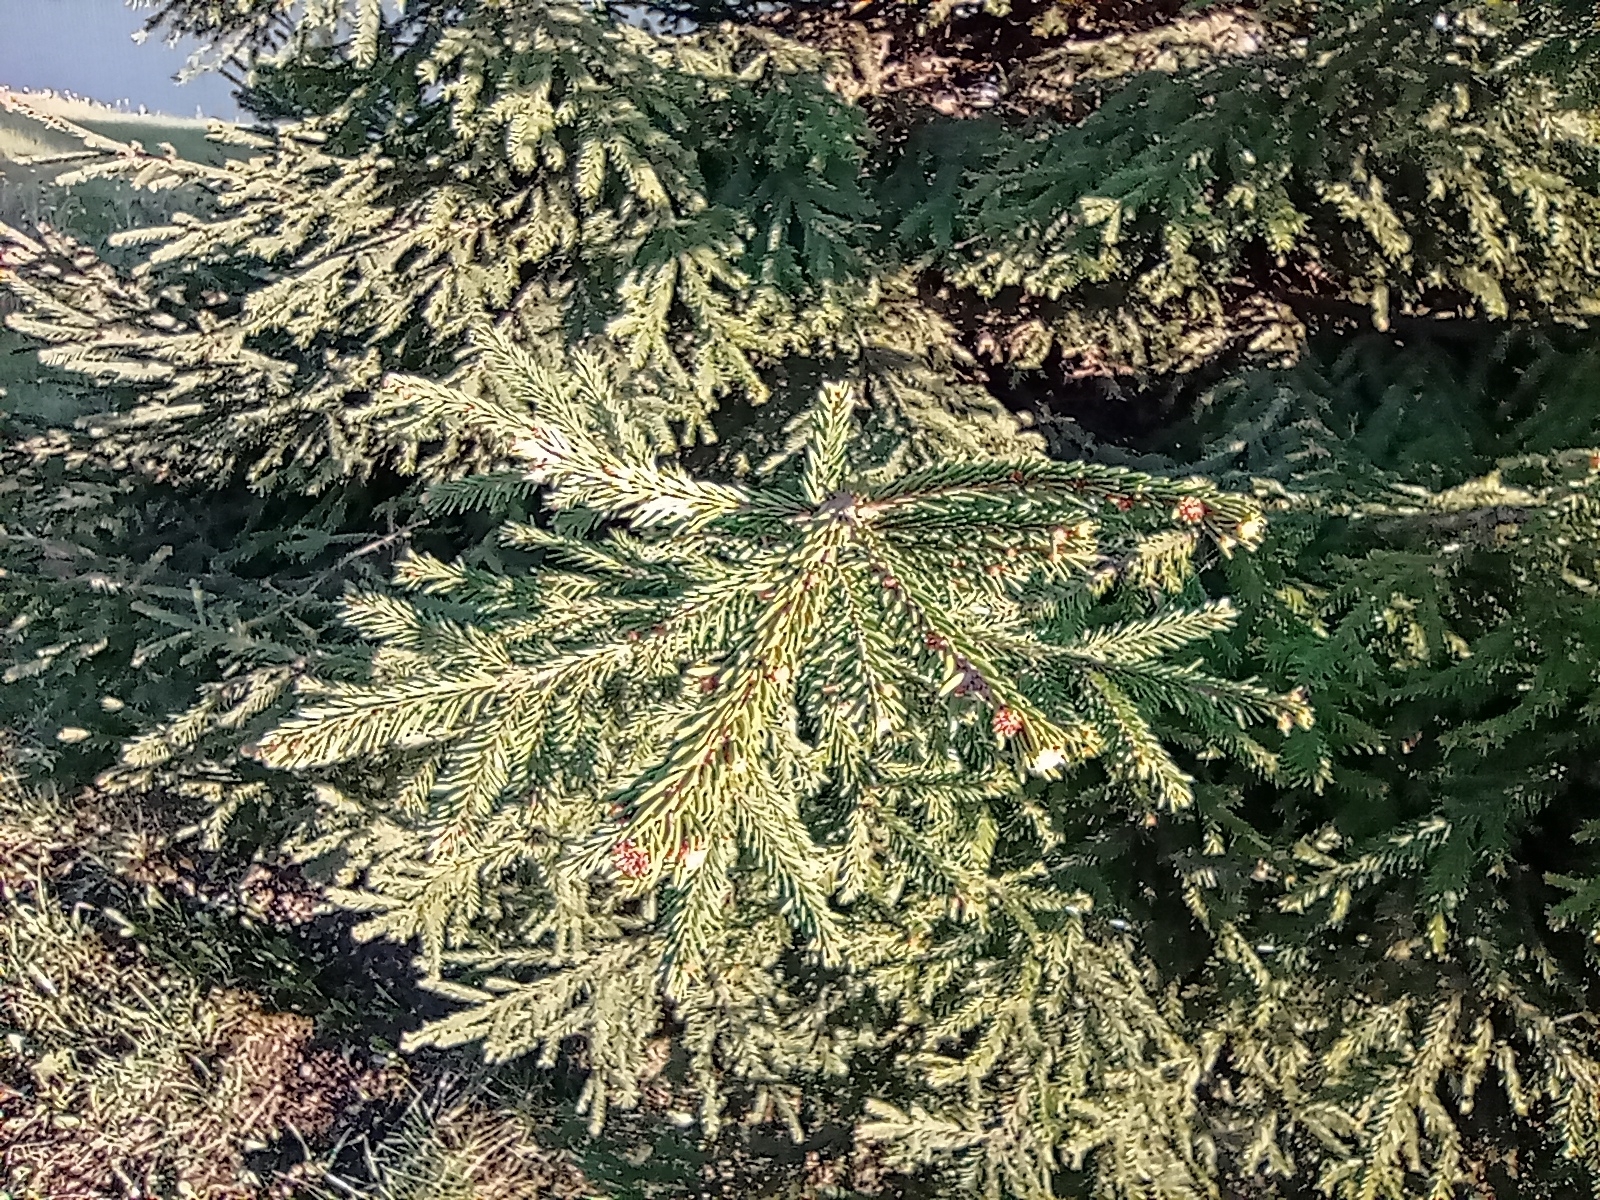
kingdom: Plantae
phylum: Tracheophyta
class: Pinopsida
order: Pinales
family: Pinaceae
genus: Picea
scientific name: Picea
